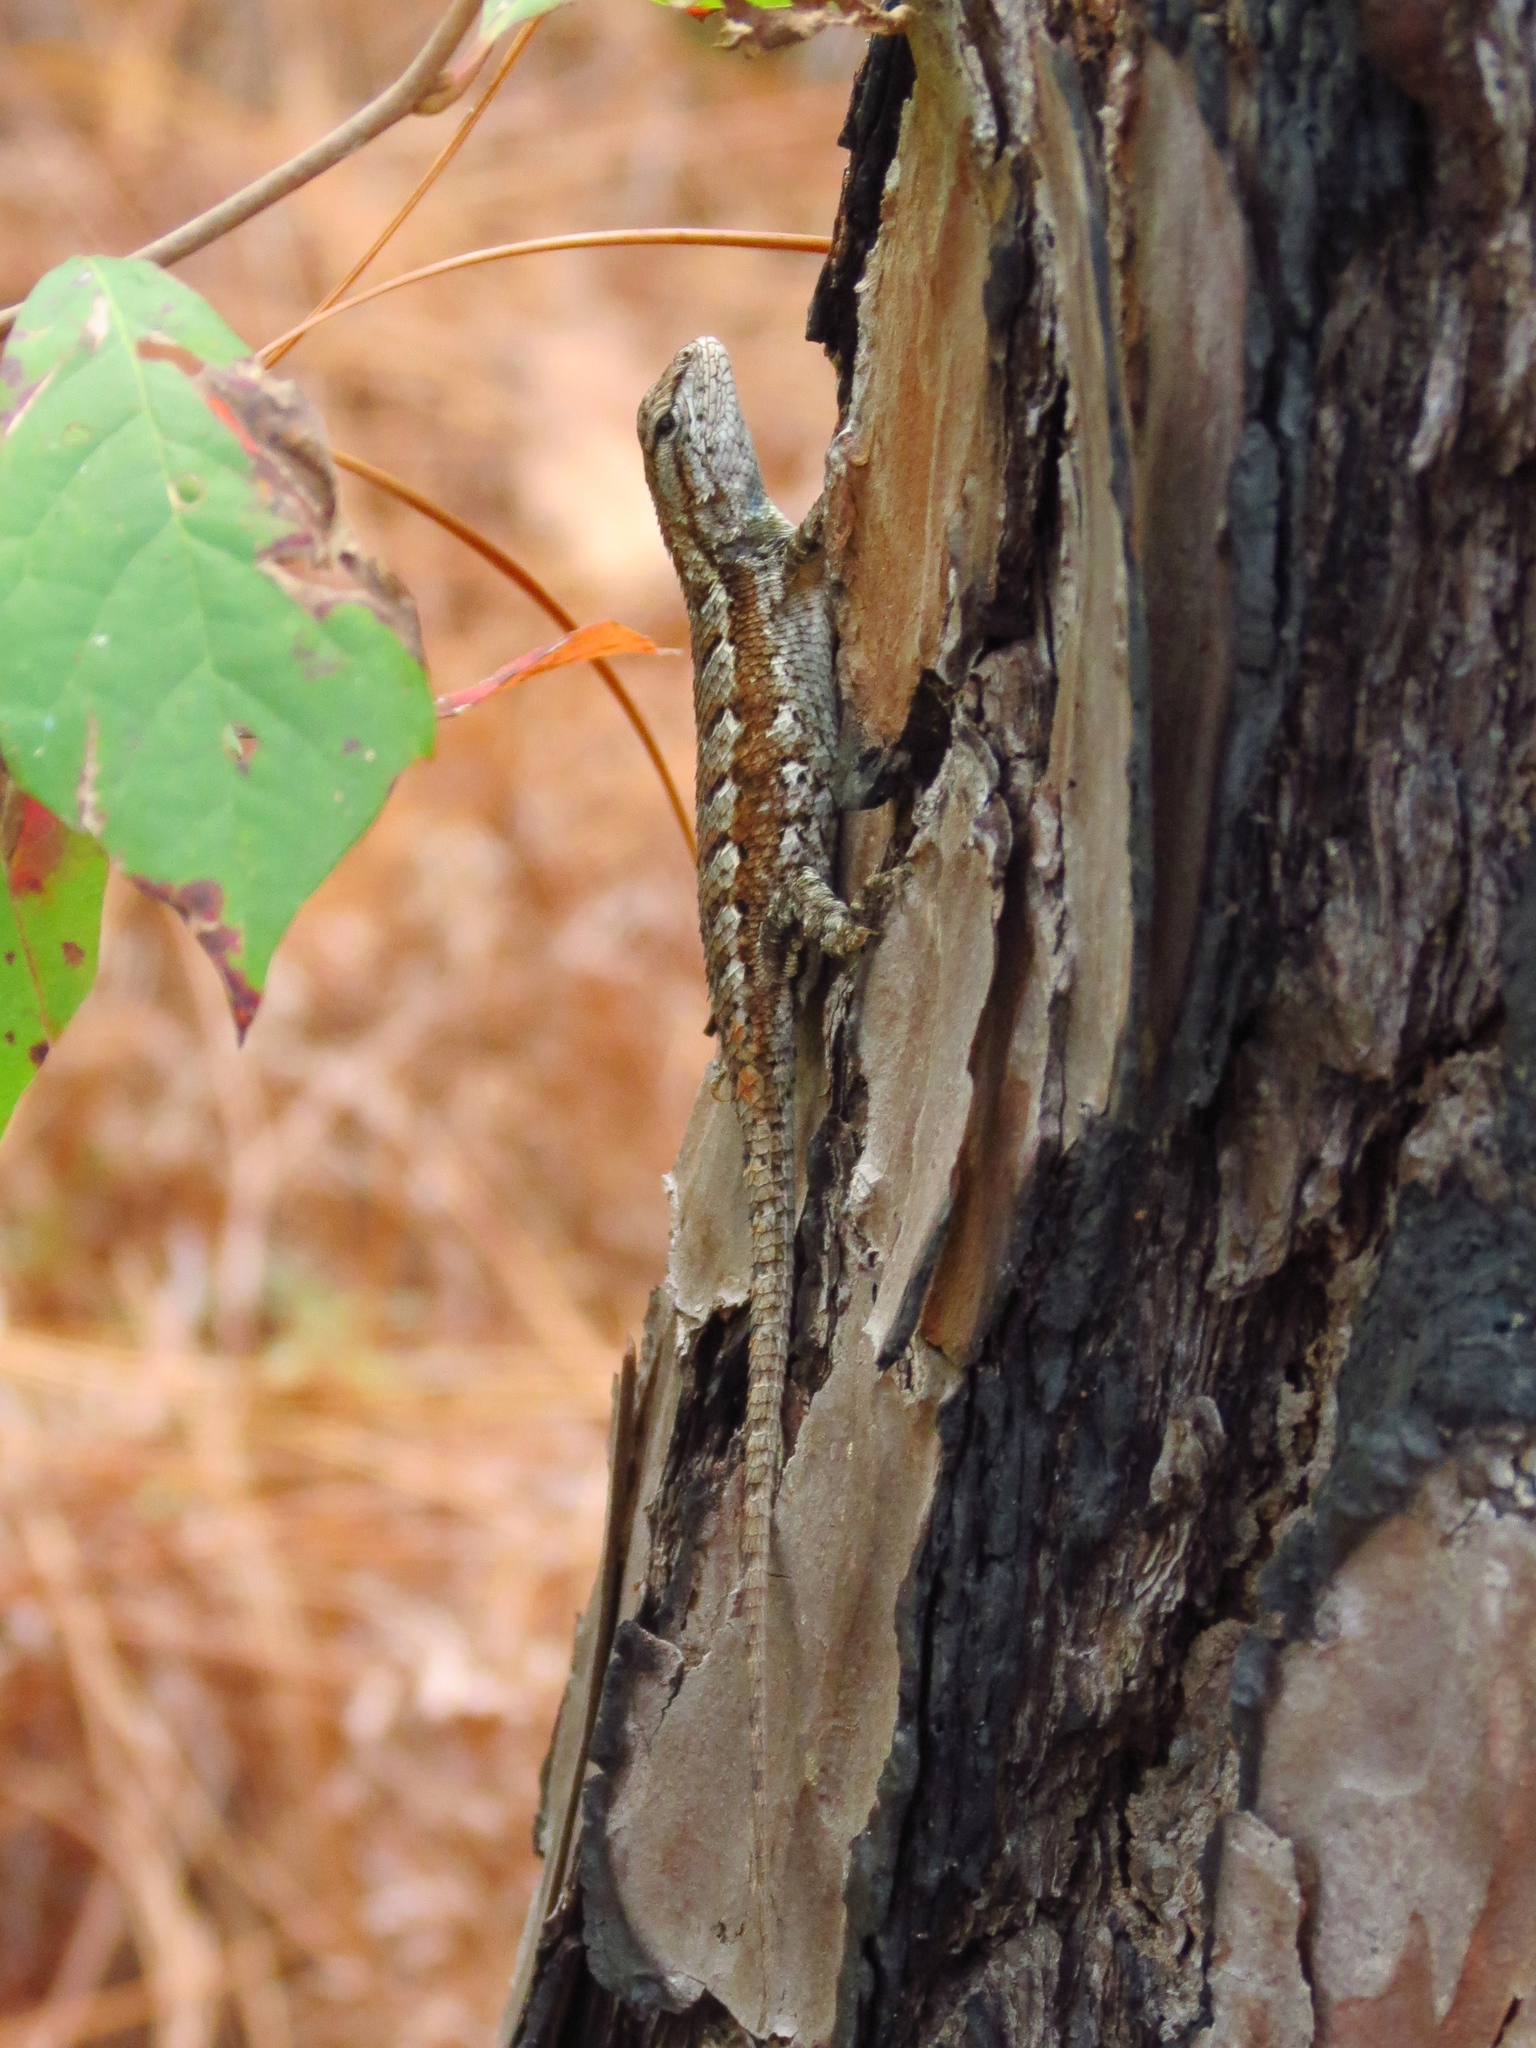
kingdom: Animalia
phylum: Chordata
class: Squamata
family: Phrynosomatidae
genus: Sceloporus
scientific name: Sceloporus consobrinus
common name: Southern prairie lizard
